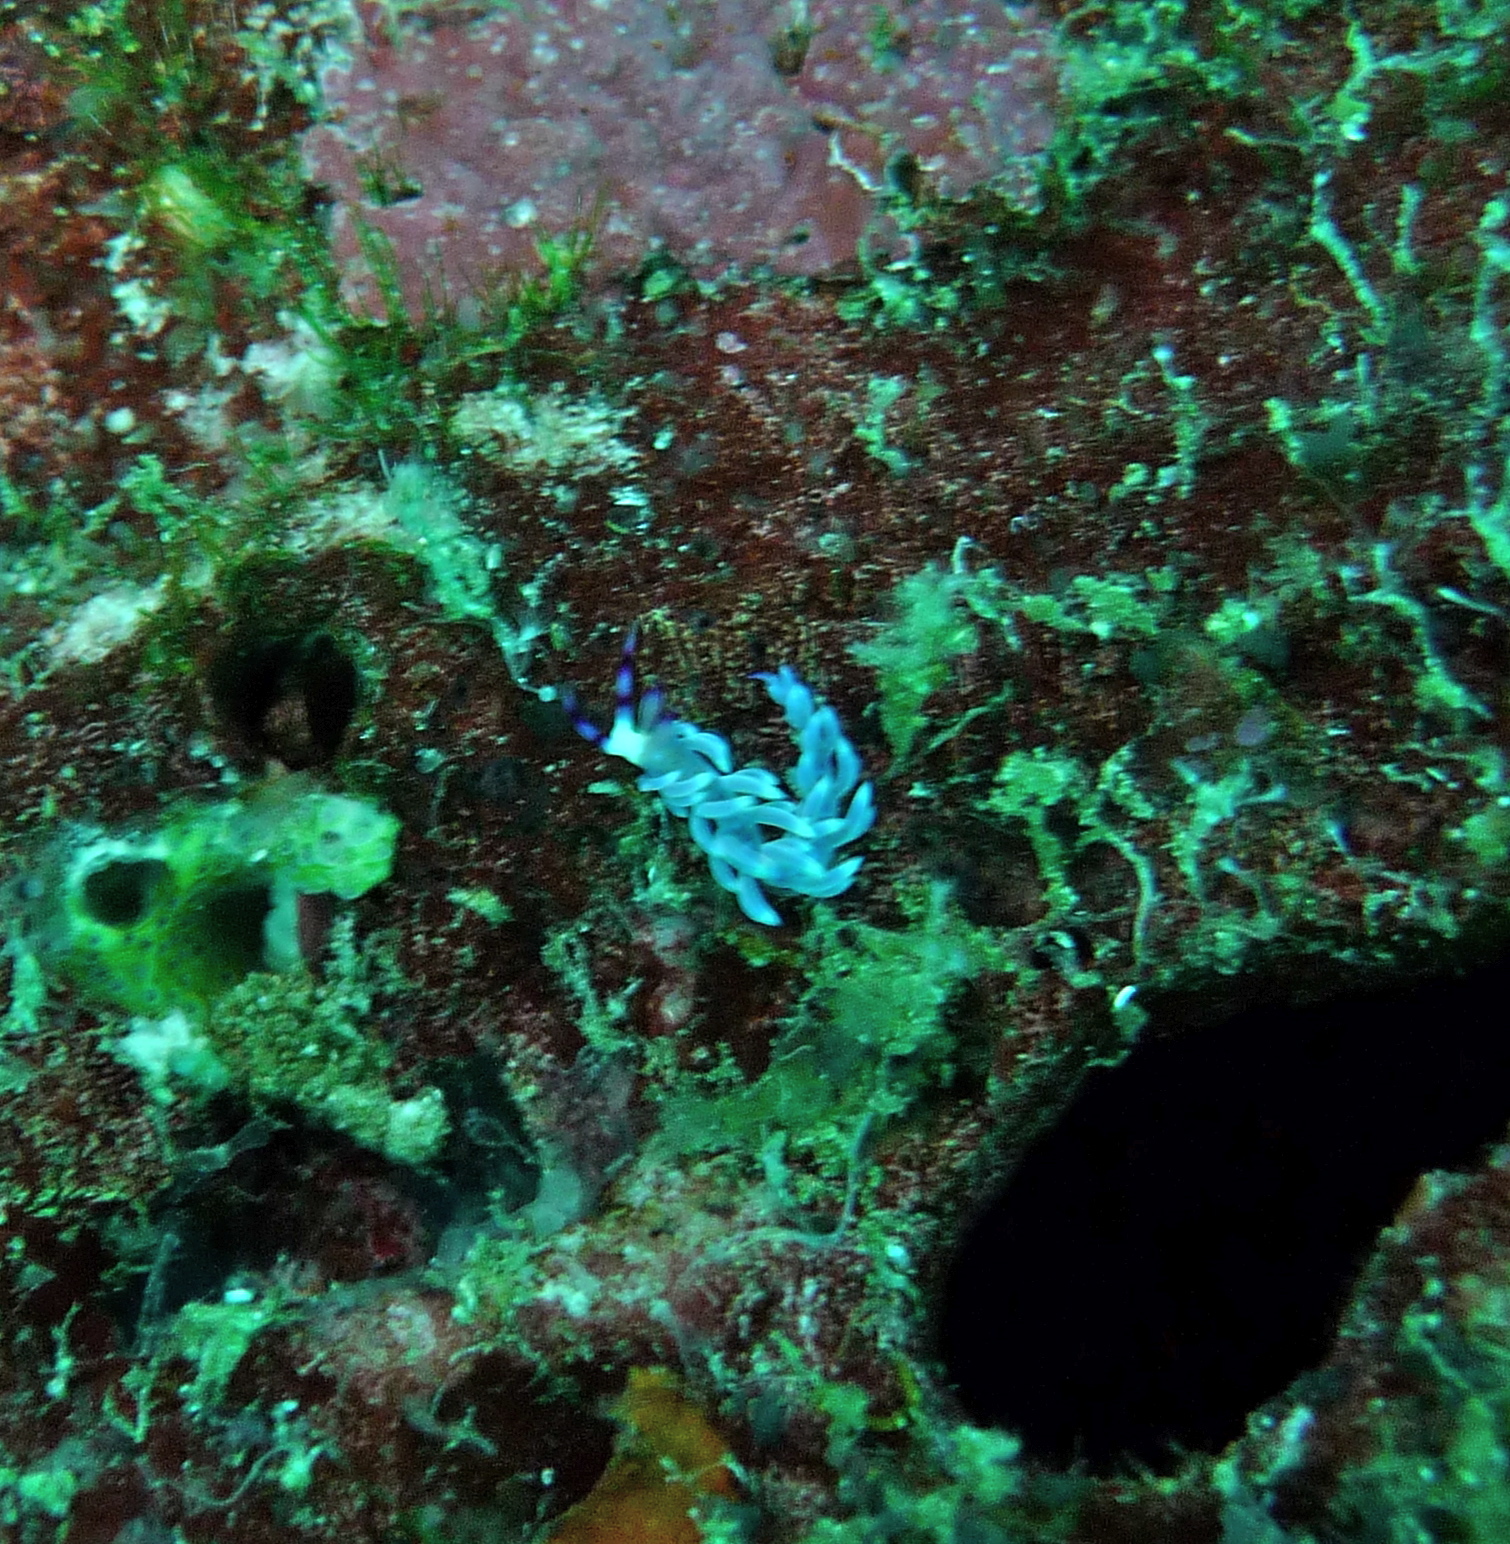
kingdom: Animalia
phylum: Mollusca
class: Gastropoda
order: Nudibranchia
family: Facelinidae
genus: Pteraeolidia
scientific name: Pteraeolidia semperi
